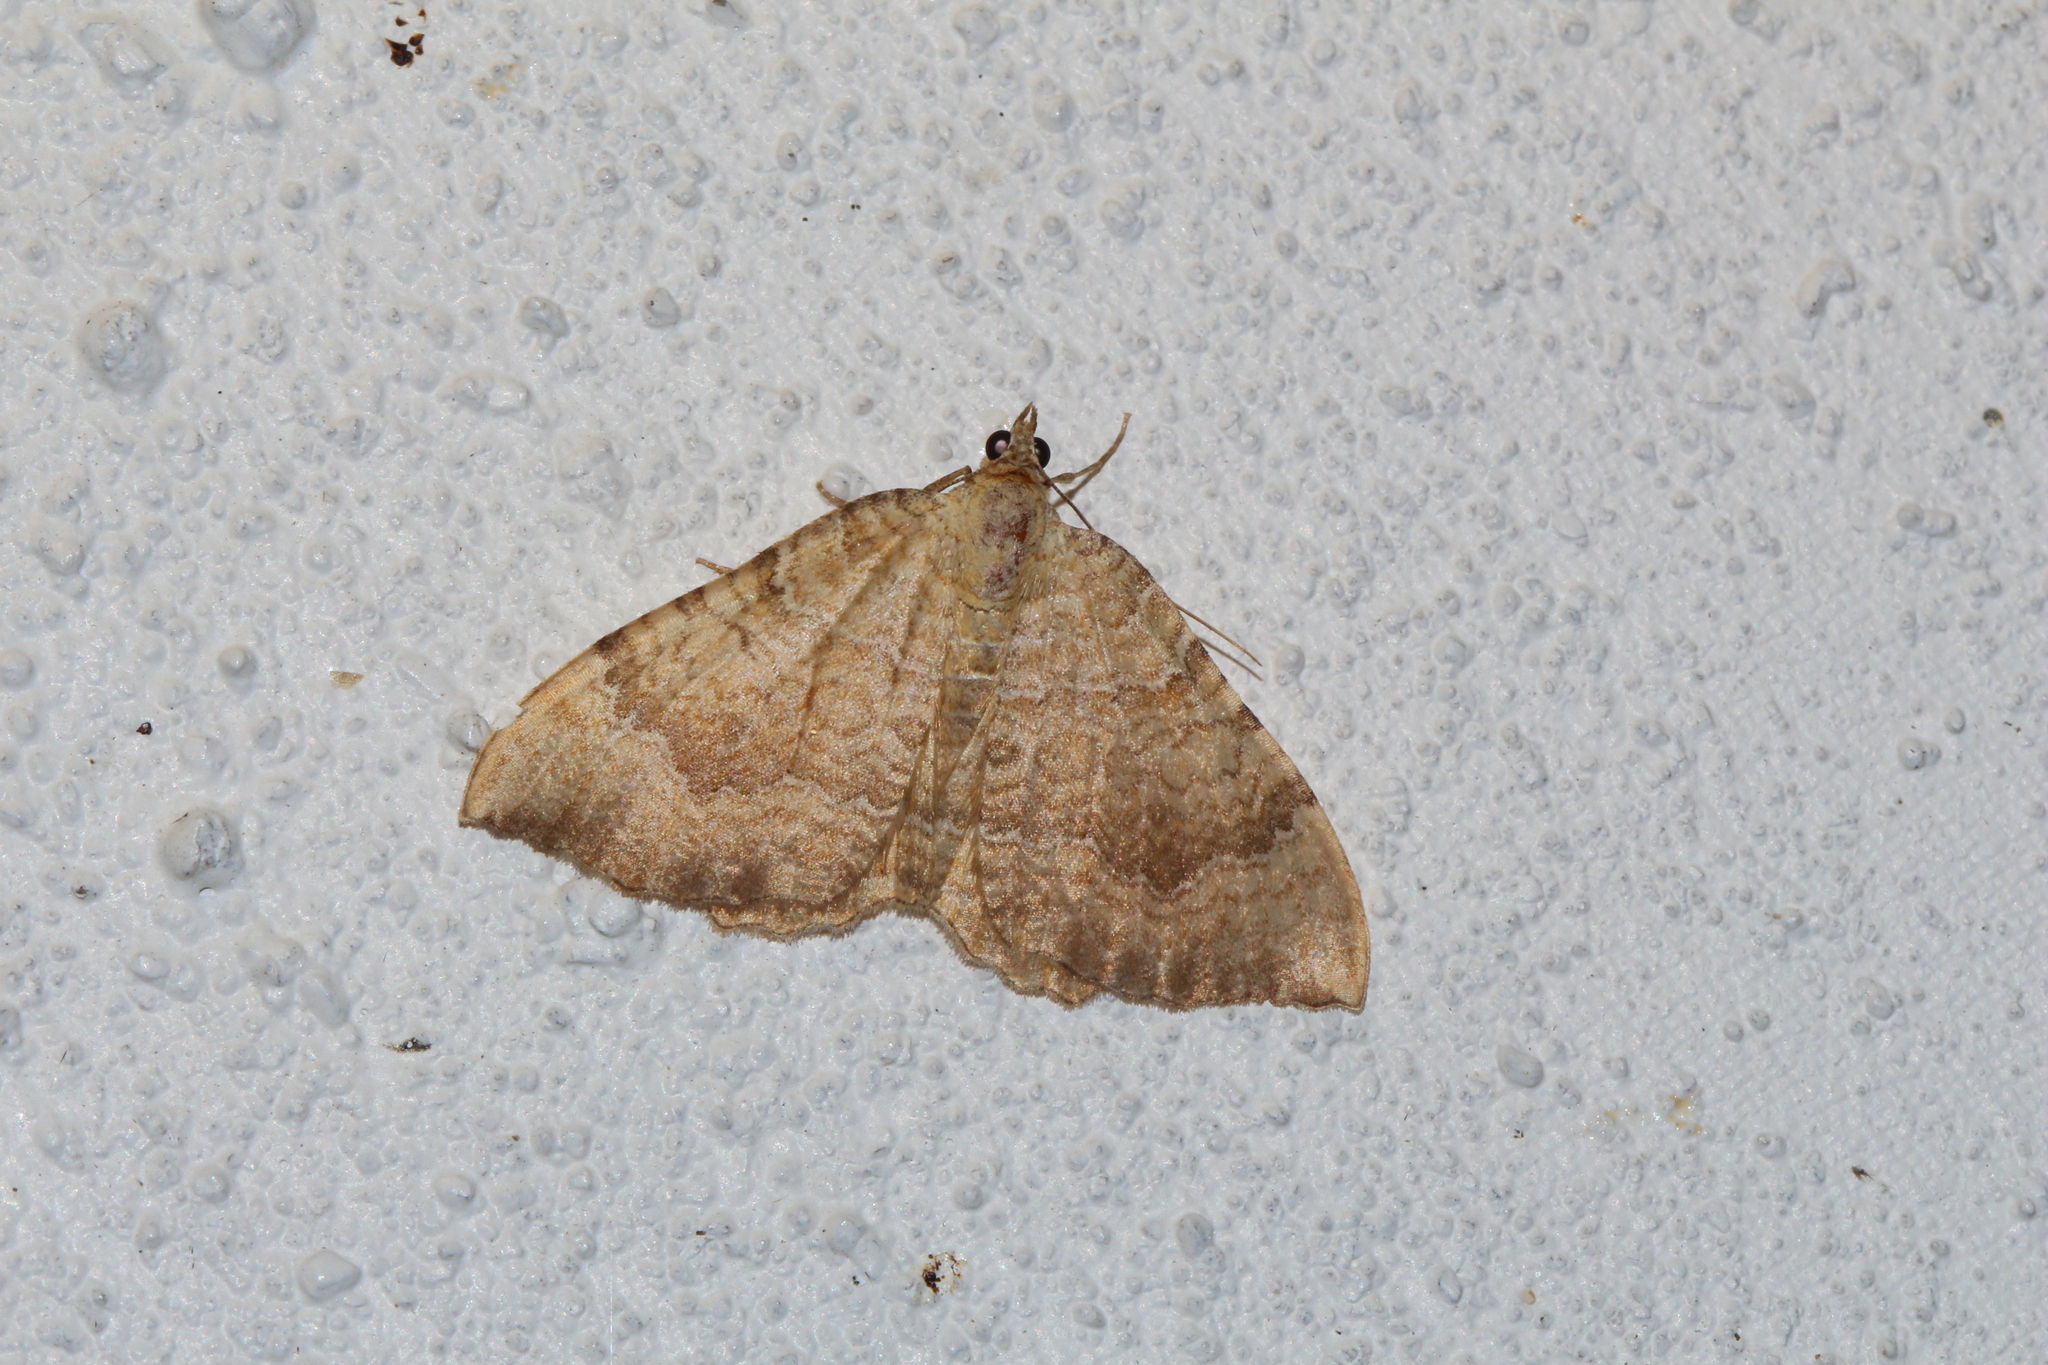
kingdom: Animalia
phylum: Arthropoda
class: Insecta
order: Lepidoptera
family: Geometridae
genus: Camptogramma
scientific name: Camptogramma bilineata
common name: Yellow shell
